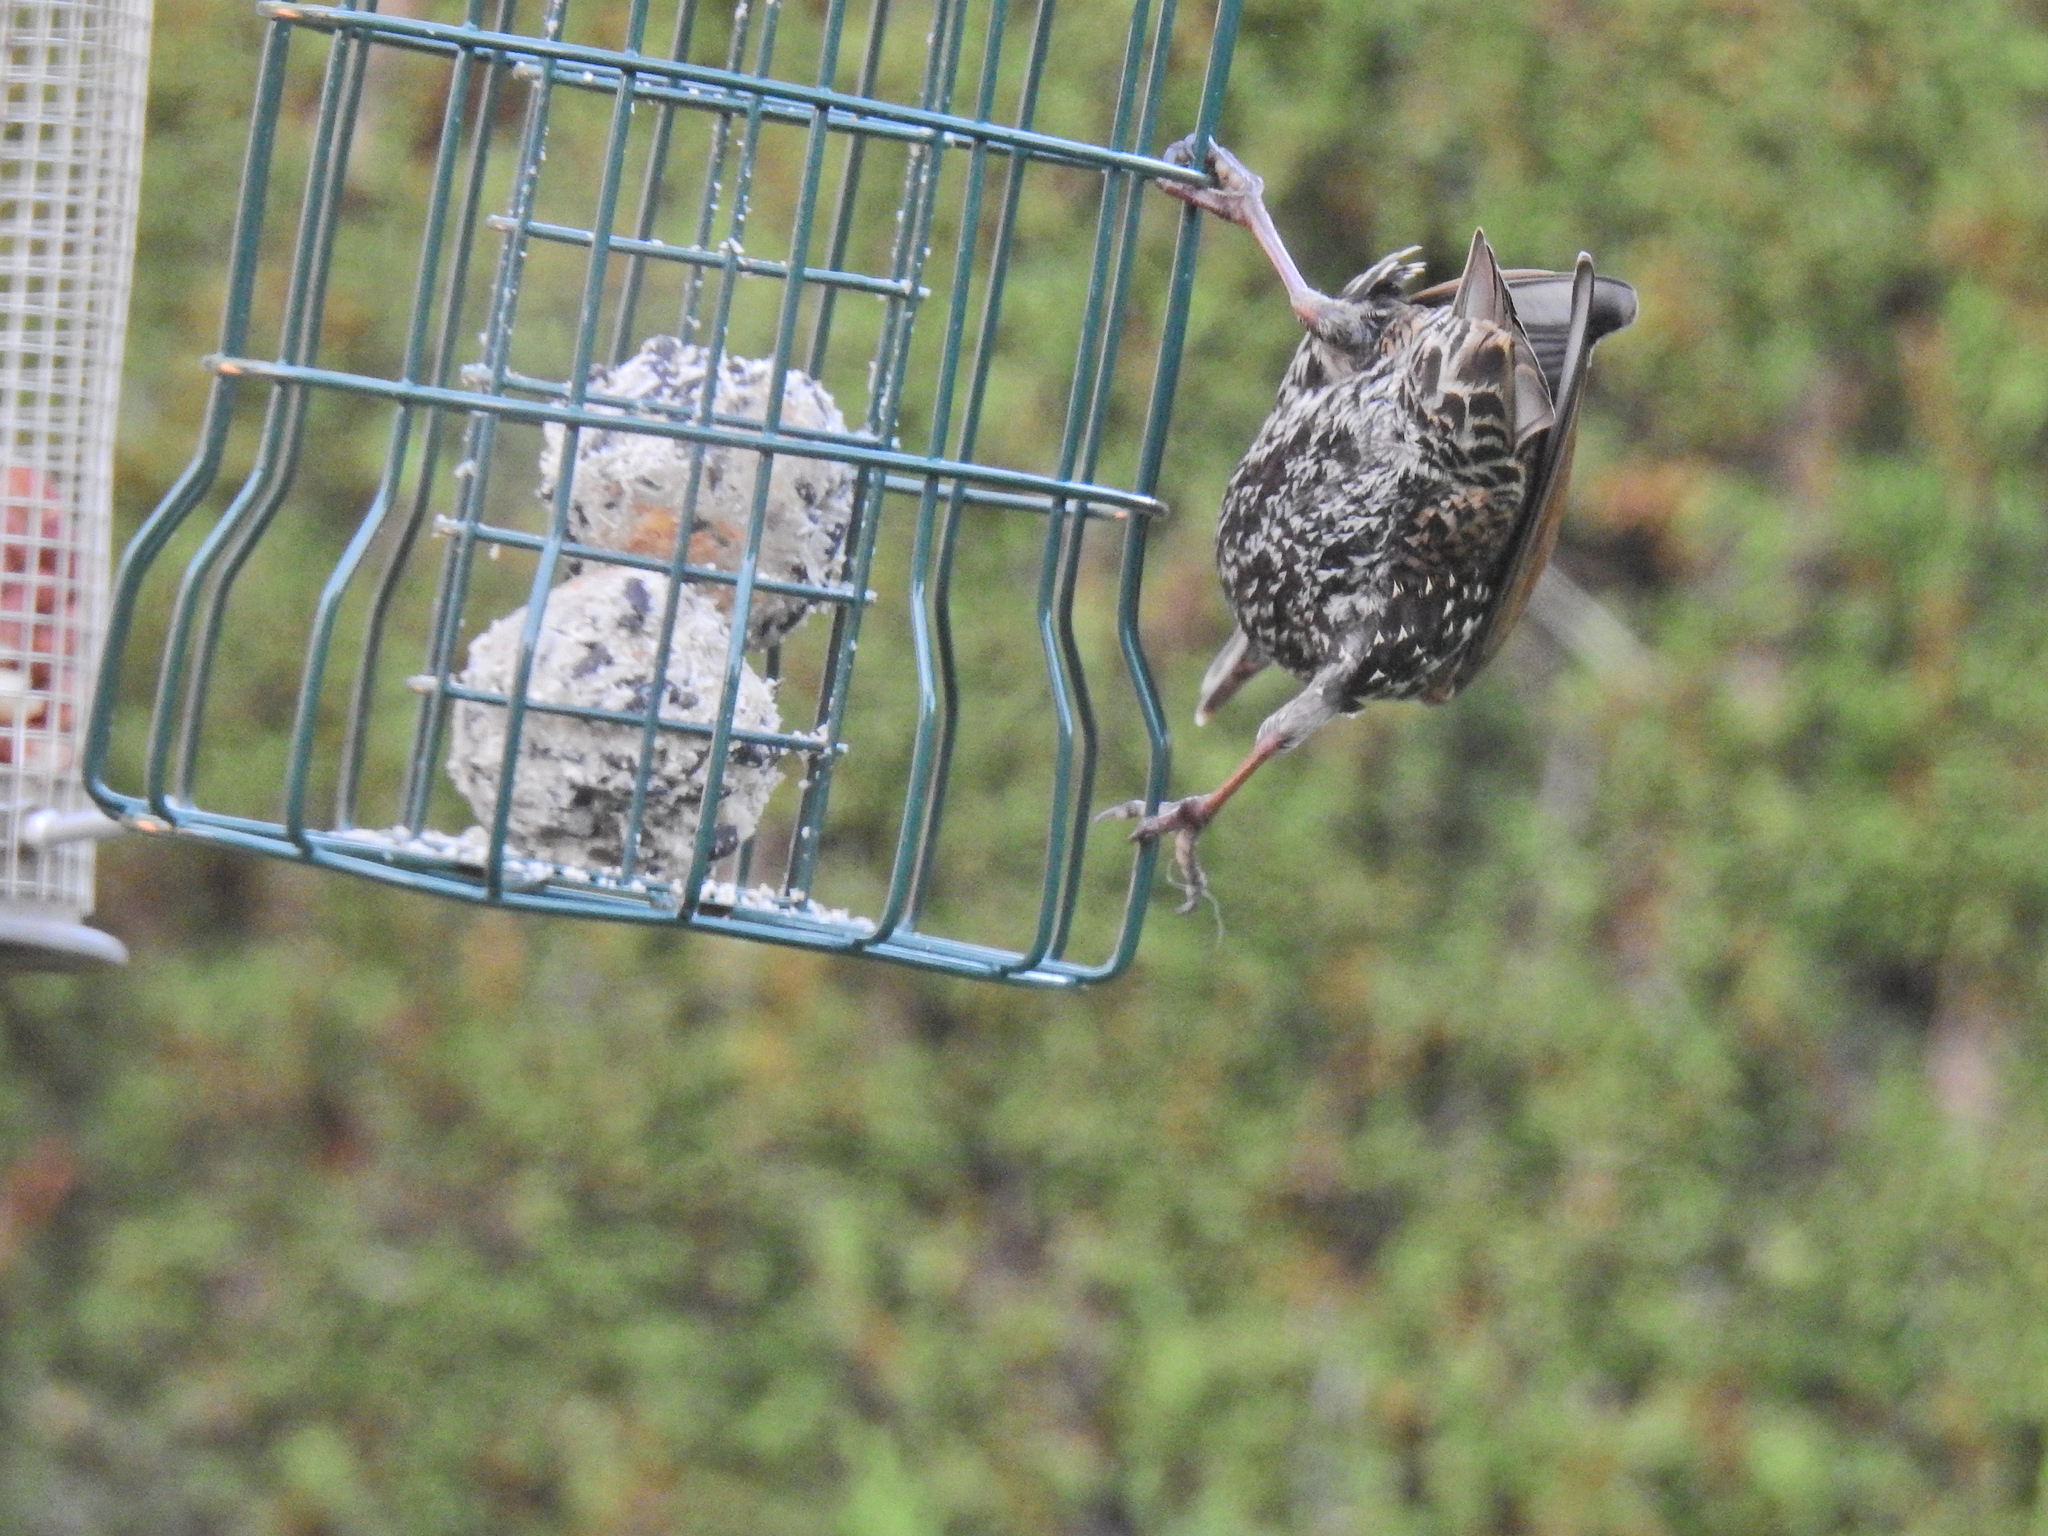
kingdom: Animalia
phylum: Chordata
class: Aves
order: Passeriformes
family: Sturnidae
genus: Sturnus
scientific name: Sturnus vulgaris
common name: Common starling
